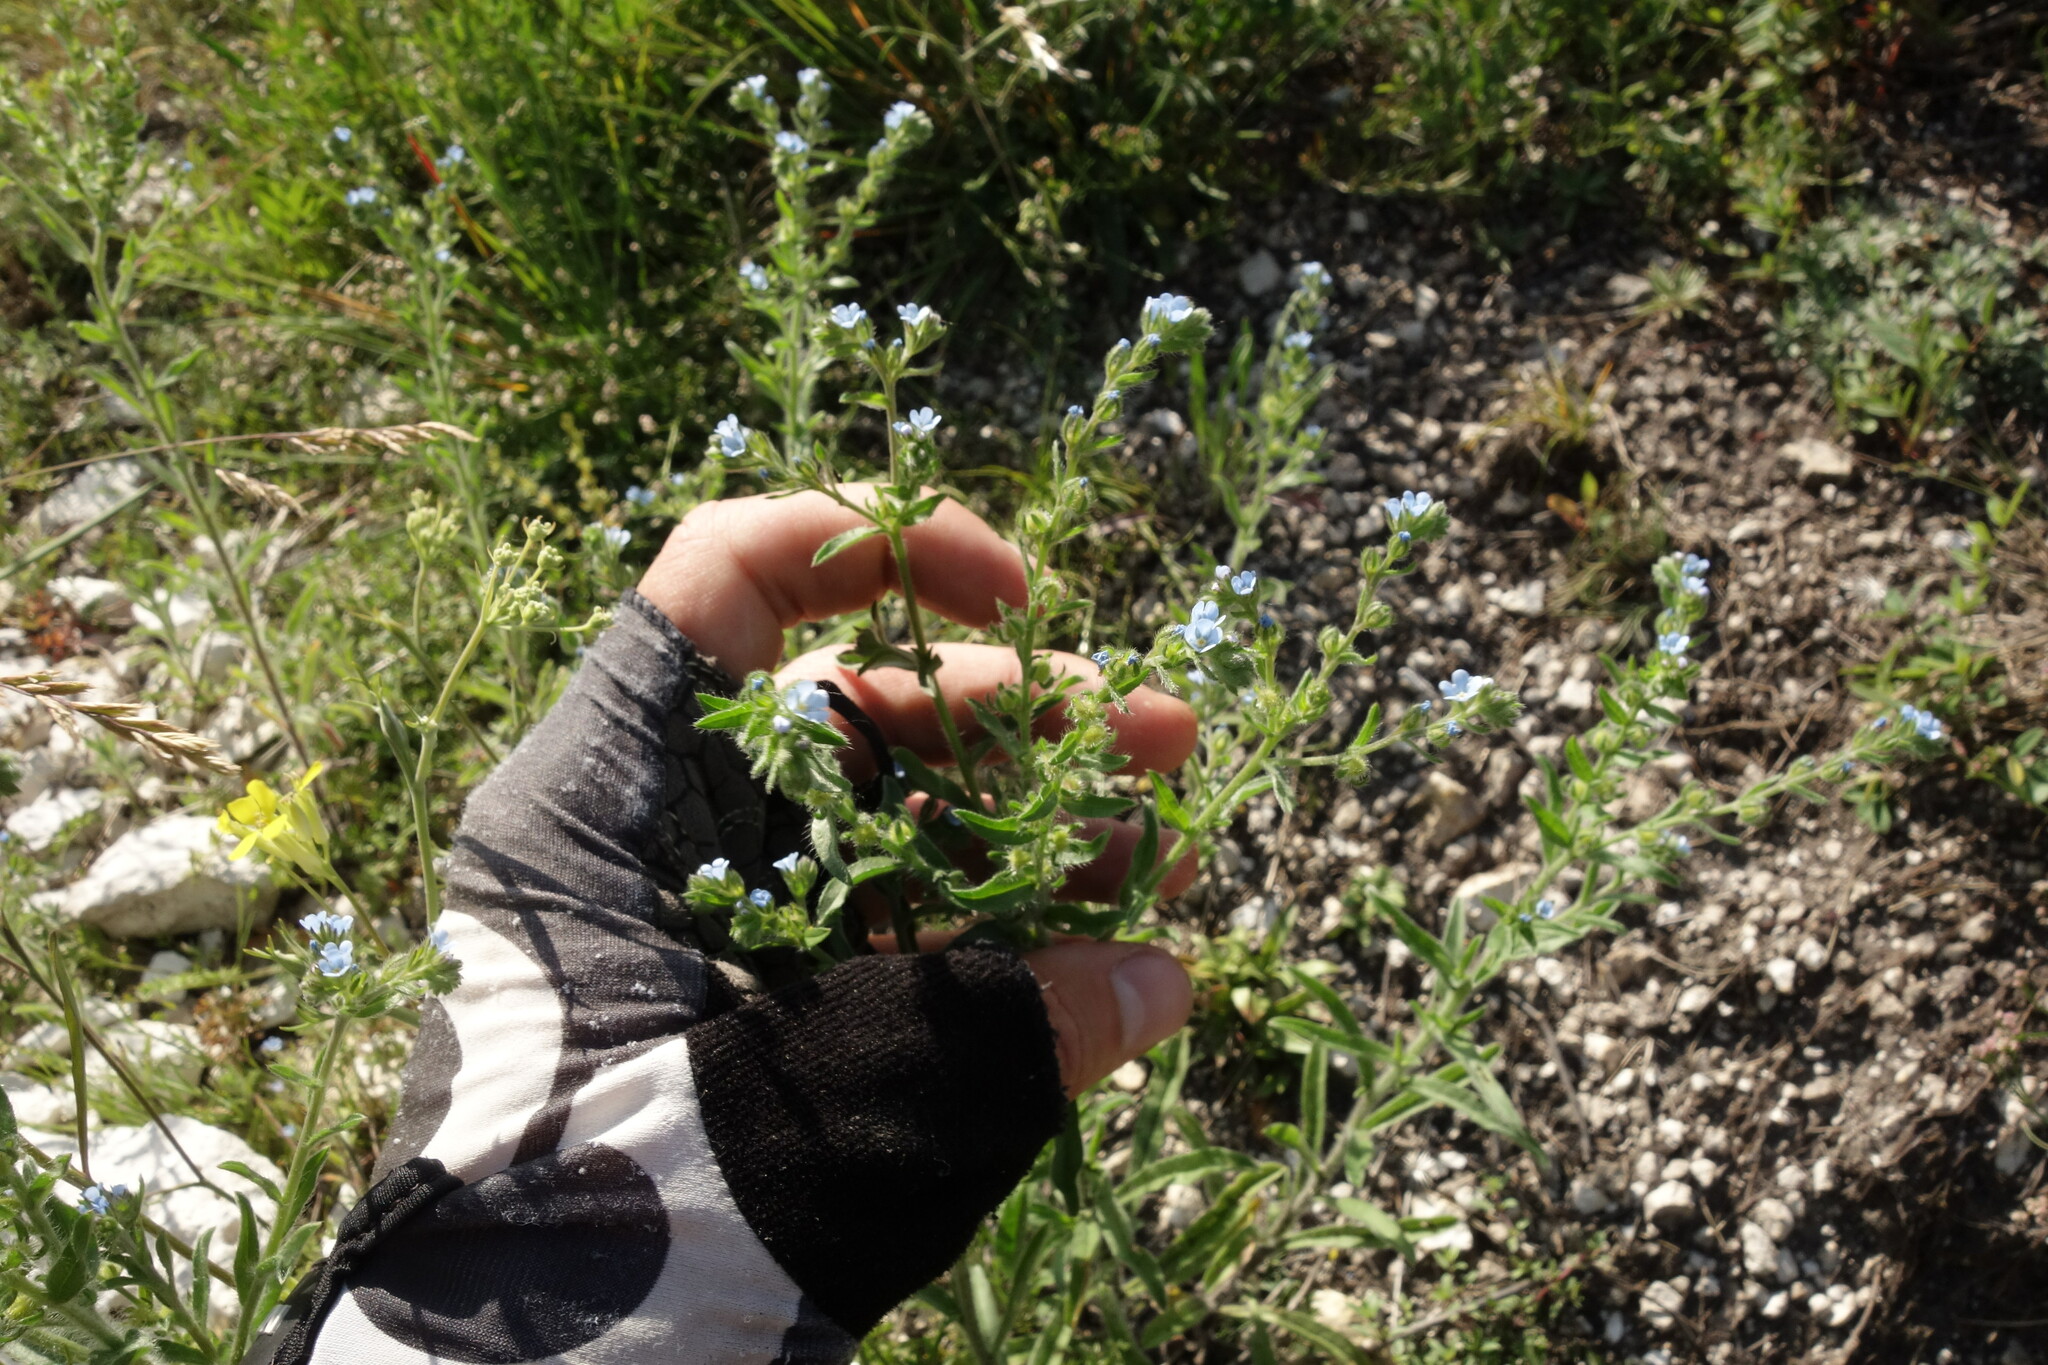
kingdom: Plantae
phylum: Tracheophyta
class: Magnoliopsida
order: Boraginales
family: Boraginaceae
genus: Lappula
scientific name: Lappula squarrosa
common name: European stickseed
